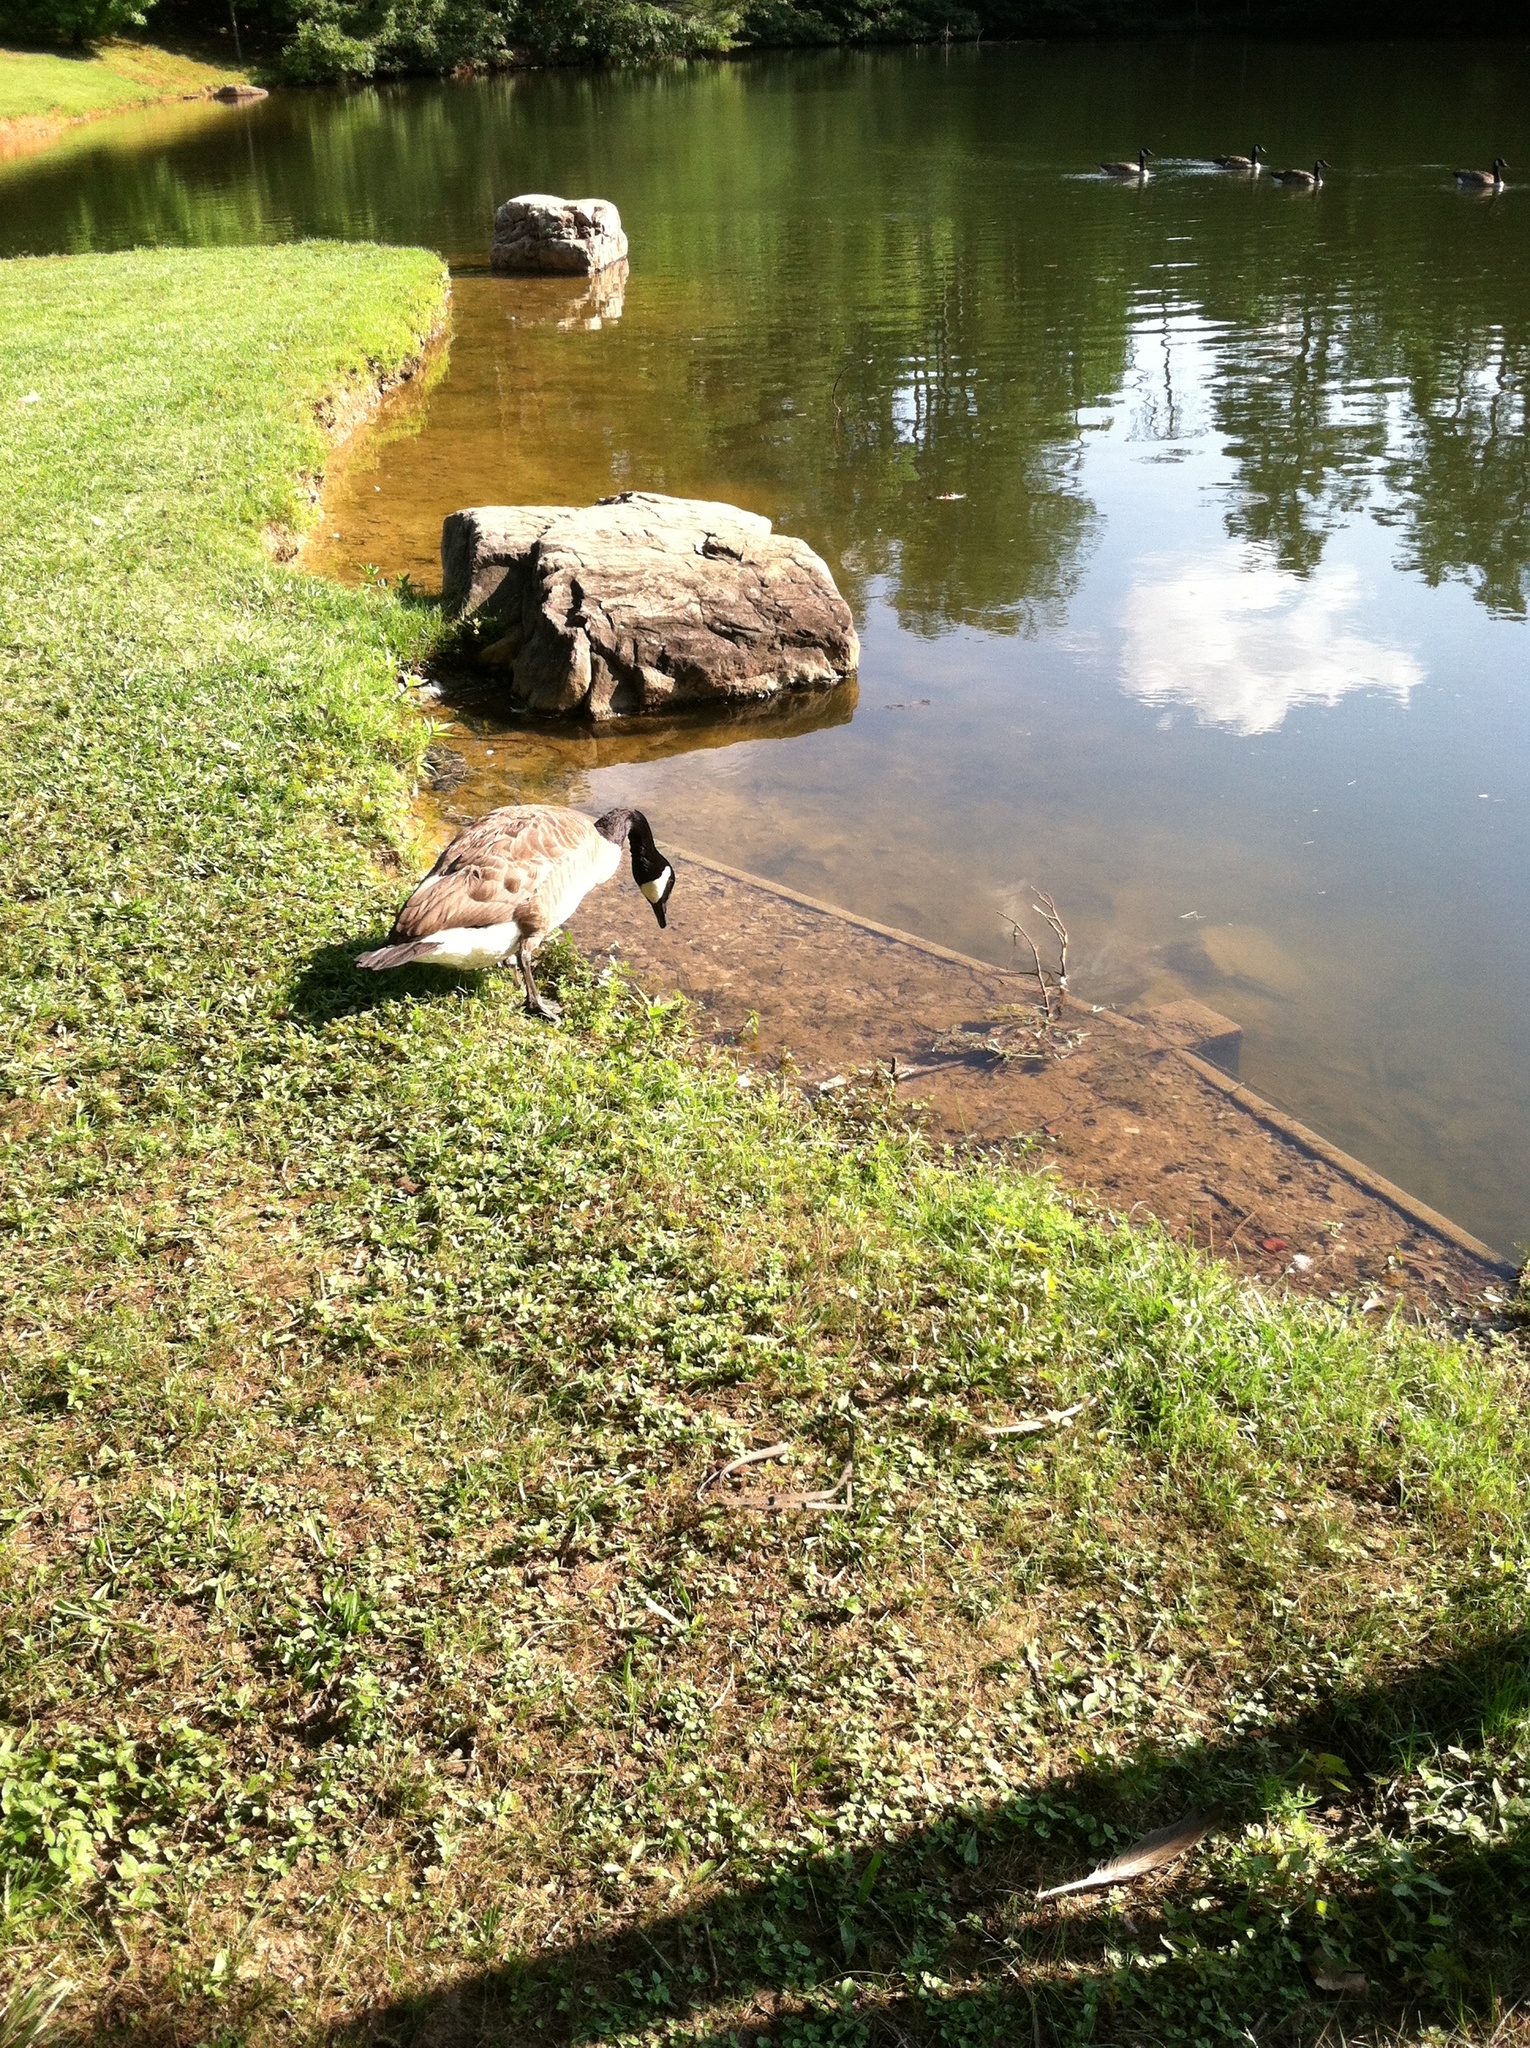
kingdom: Animalia
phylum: Chordata
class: Aves
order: Anseriformes
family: Anatidae
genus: Branta
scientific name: Branta canadensis
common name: Canada goose
